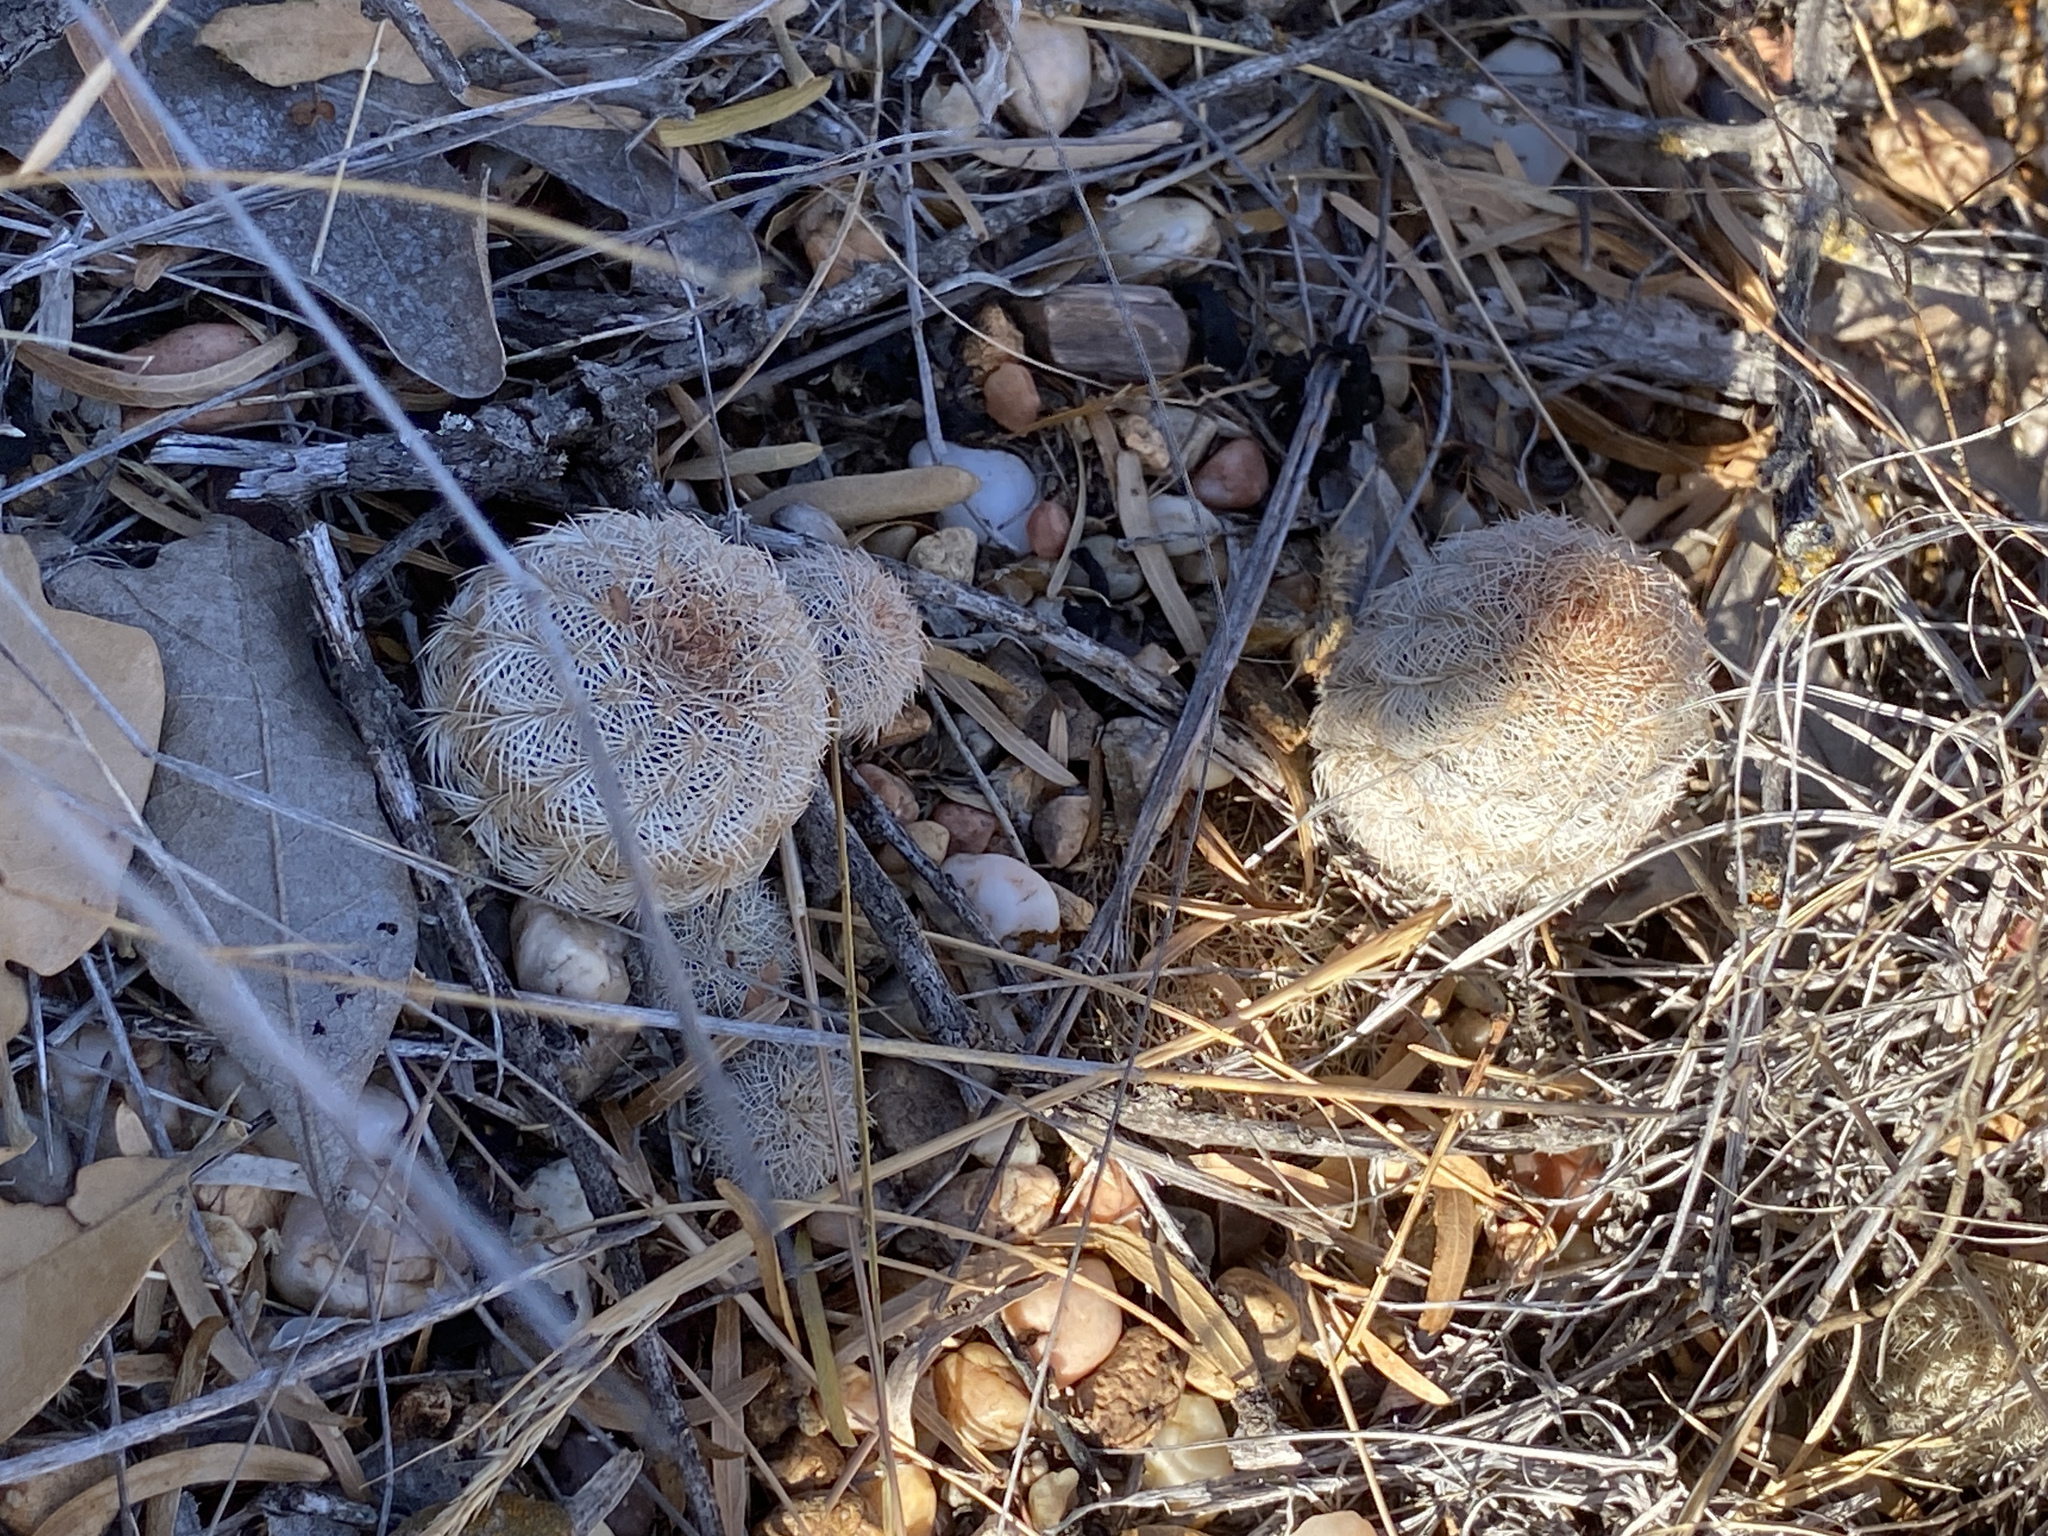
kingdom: Plantae
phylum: Tracheophyta
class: Magnoliopsida
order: Caryophyllales
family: Cactaceae
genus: Echinocereus
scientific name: Echinocereus reichenbachii
